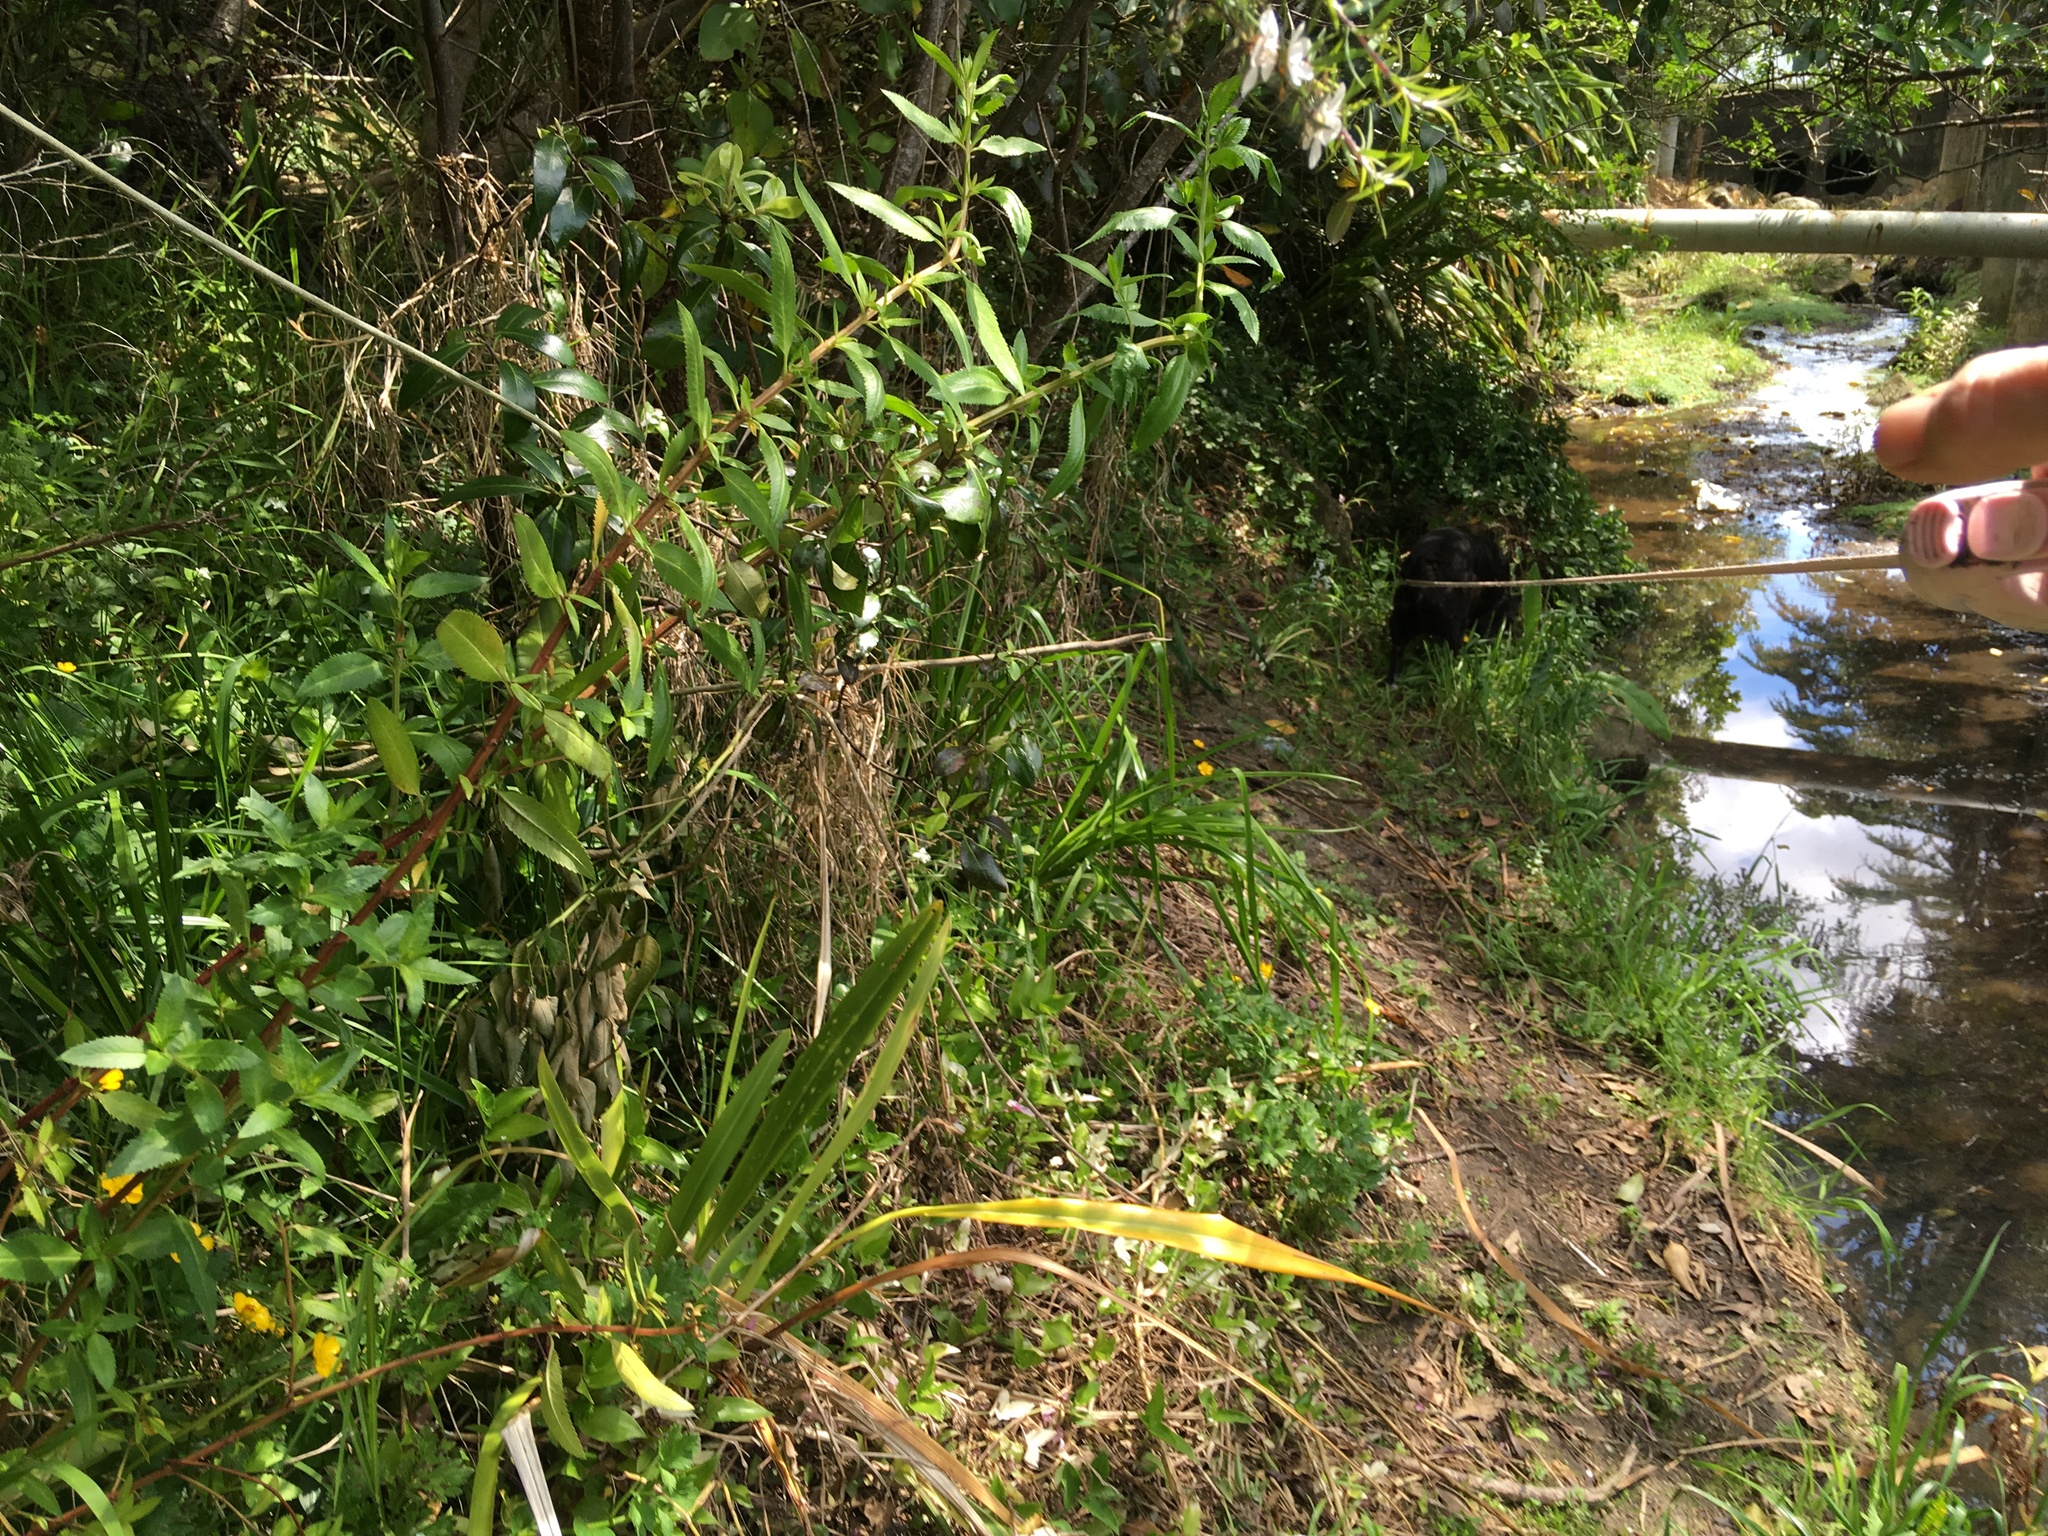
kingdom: Plantae
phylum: Tracheophyta
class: Magnoliopsida
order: Saxifragales
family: Haloragaceae
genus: Haloragis
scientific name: Haloragis erecta
